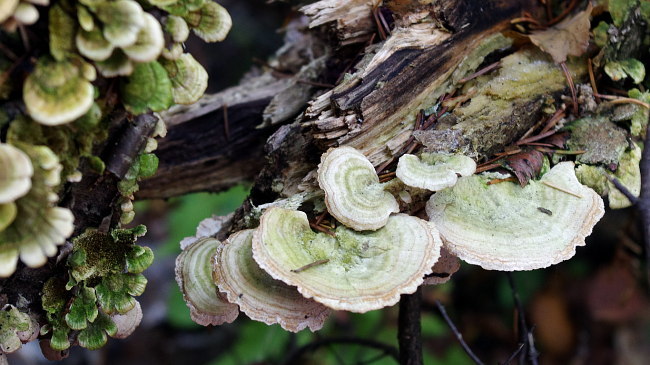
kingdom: Fungi
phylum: Basidiomycota
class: Agaricomycetes
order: Hymenochaetales
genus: Trichaptum
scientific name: Trichaptum biforme
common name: Violet-toothed polypore
